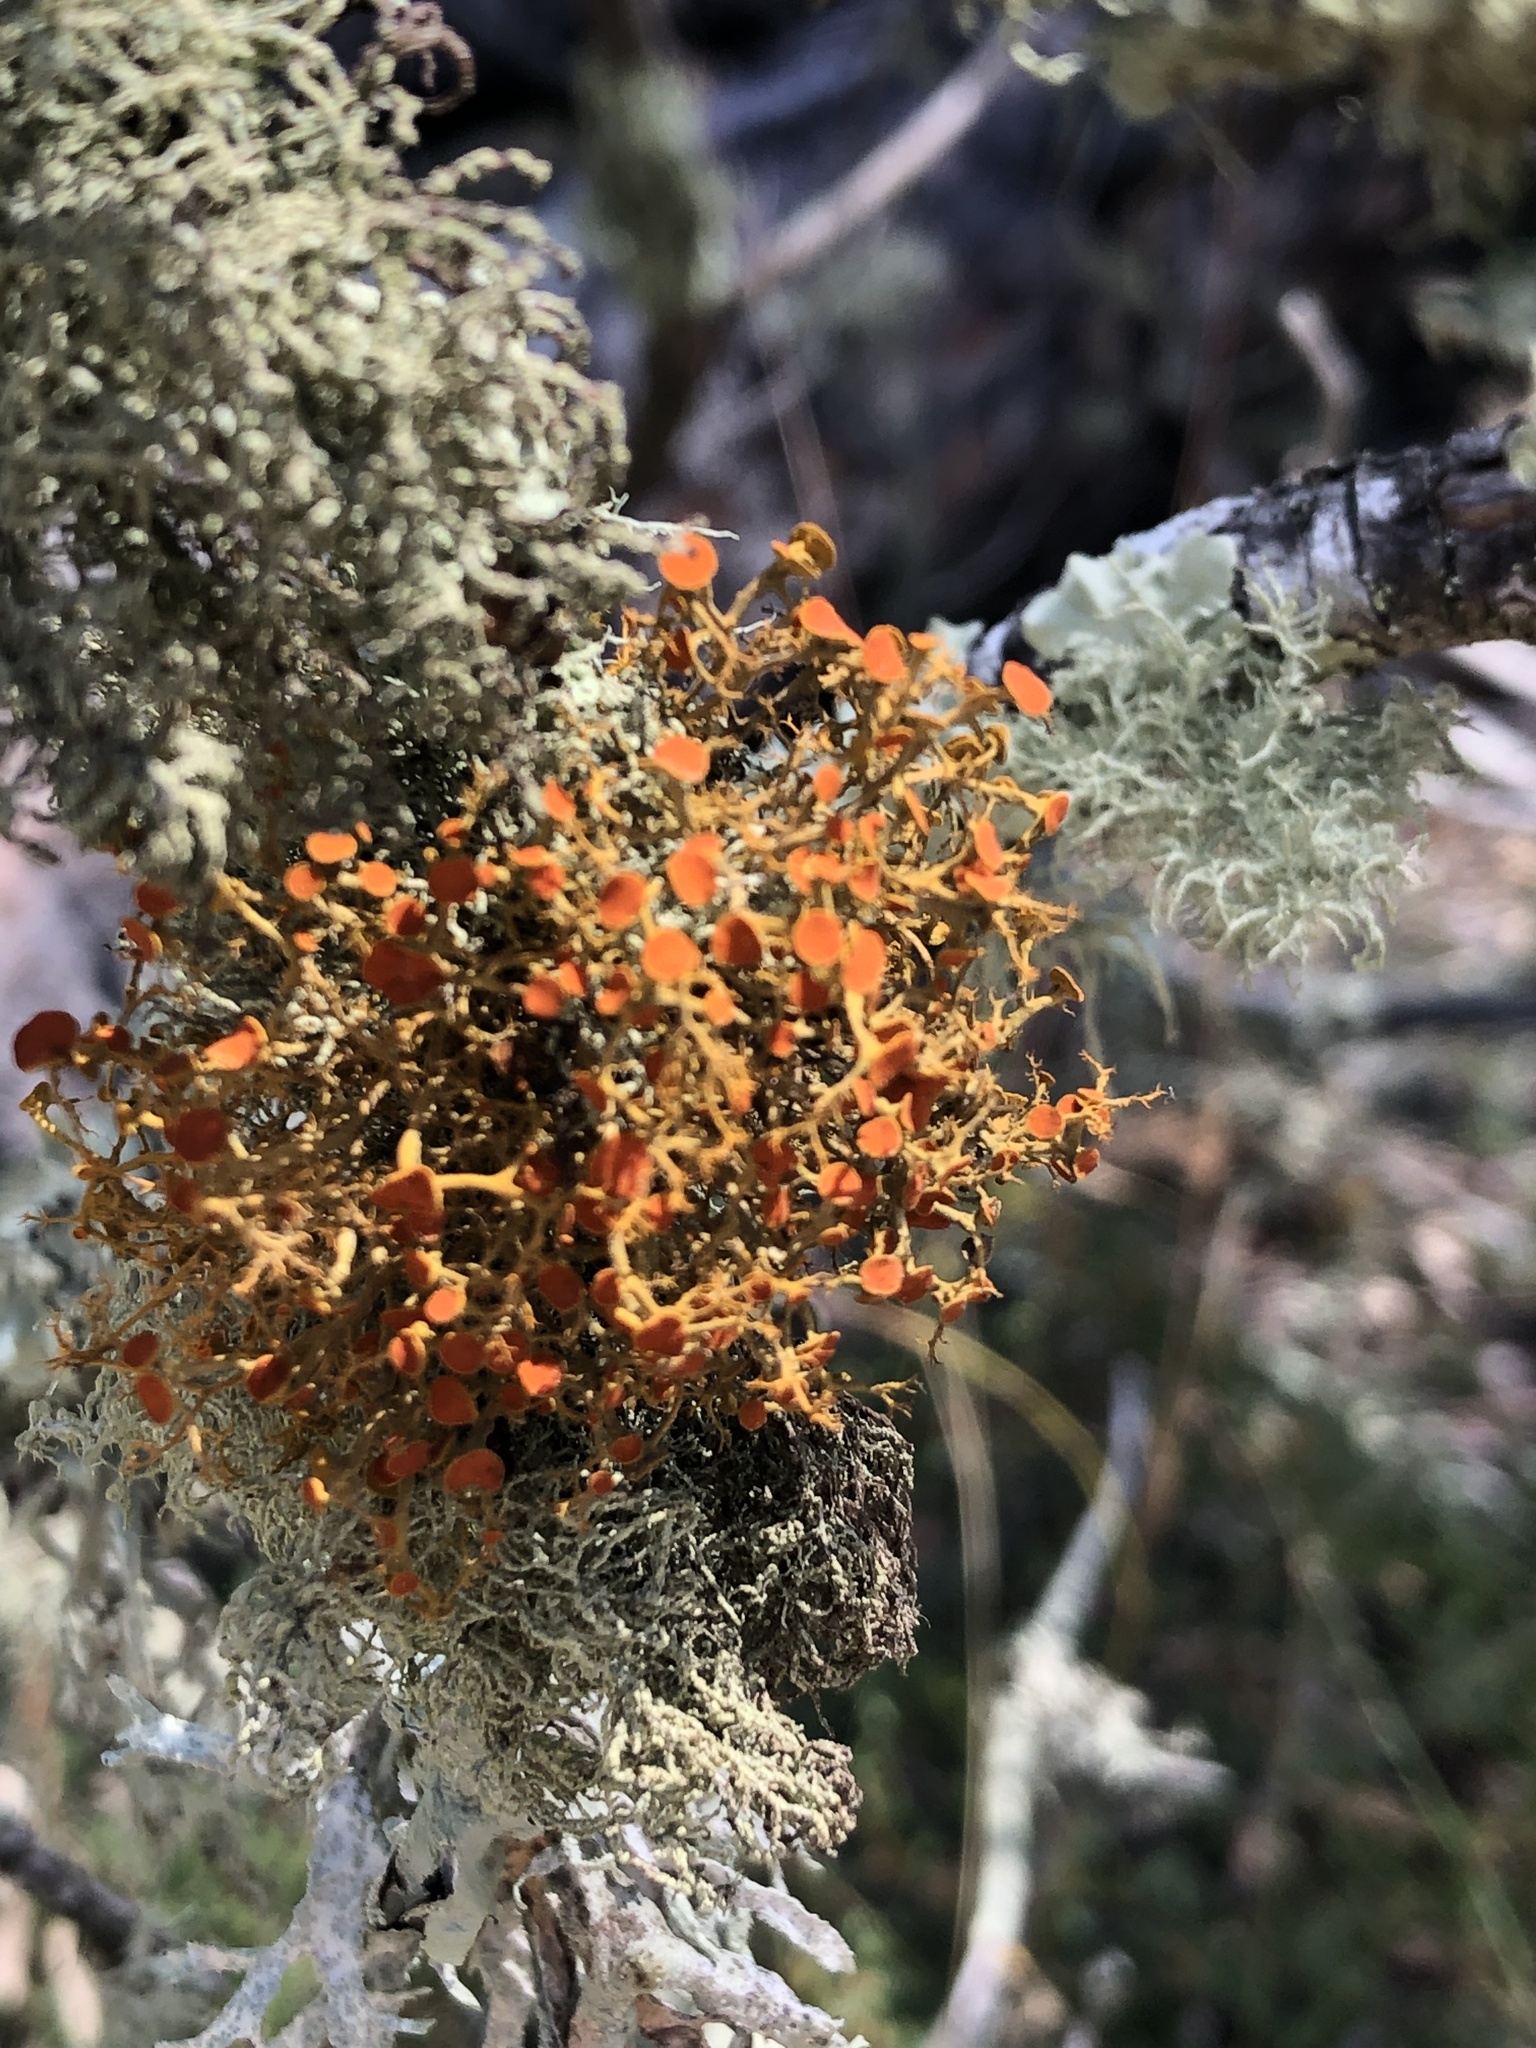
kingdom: Fungi
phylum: Ascomycota
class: Lecanoromycetes
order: Teloschistales
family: Teloschistaceae
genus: Teloschistes
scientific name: Teloschistes flavicans
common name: Golden hair-lichen
